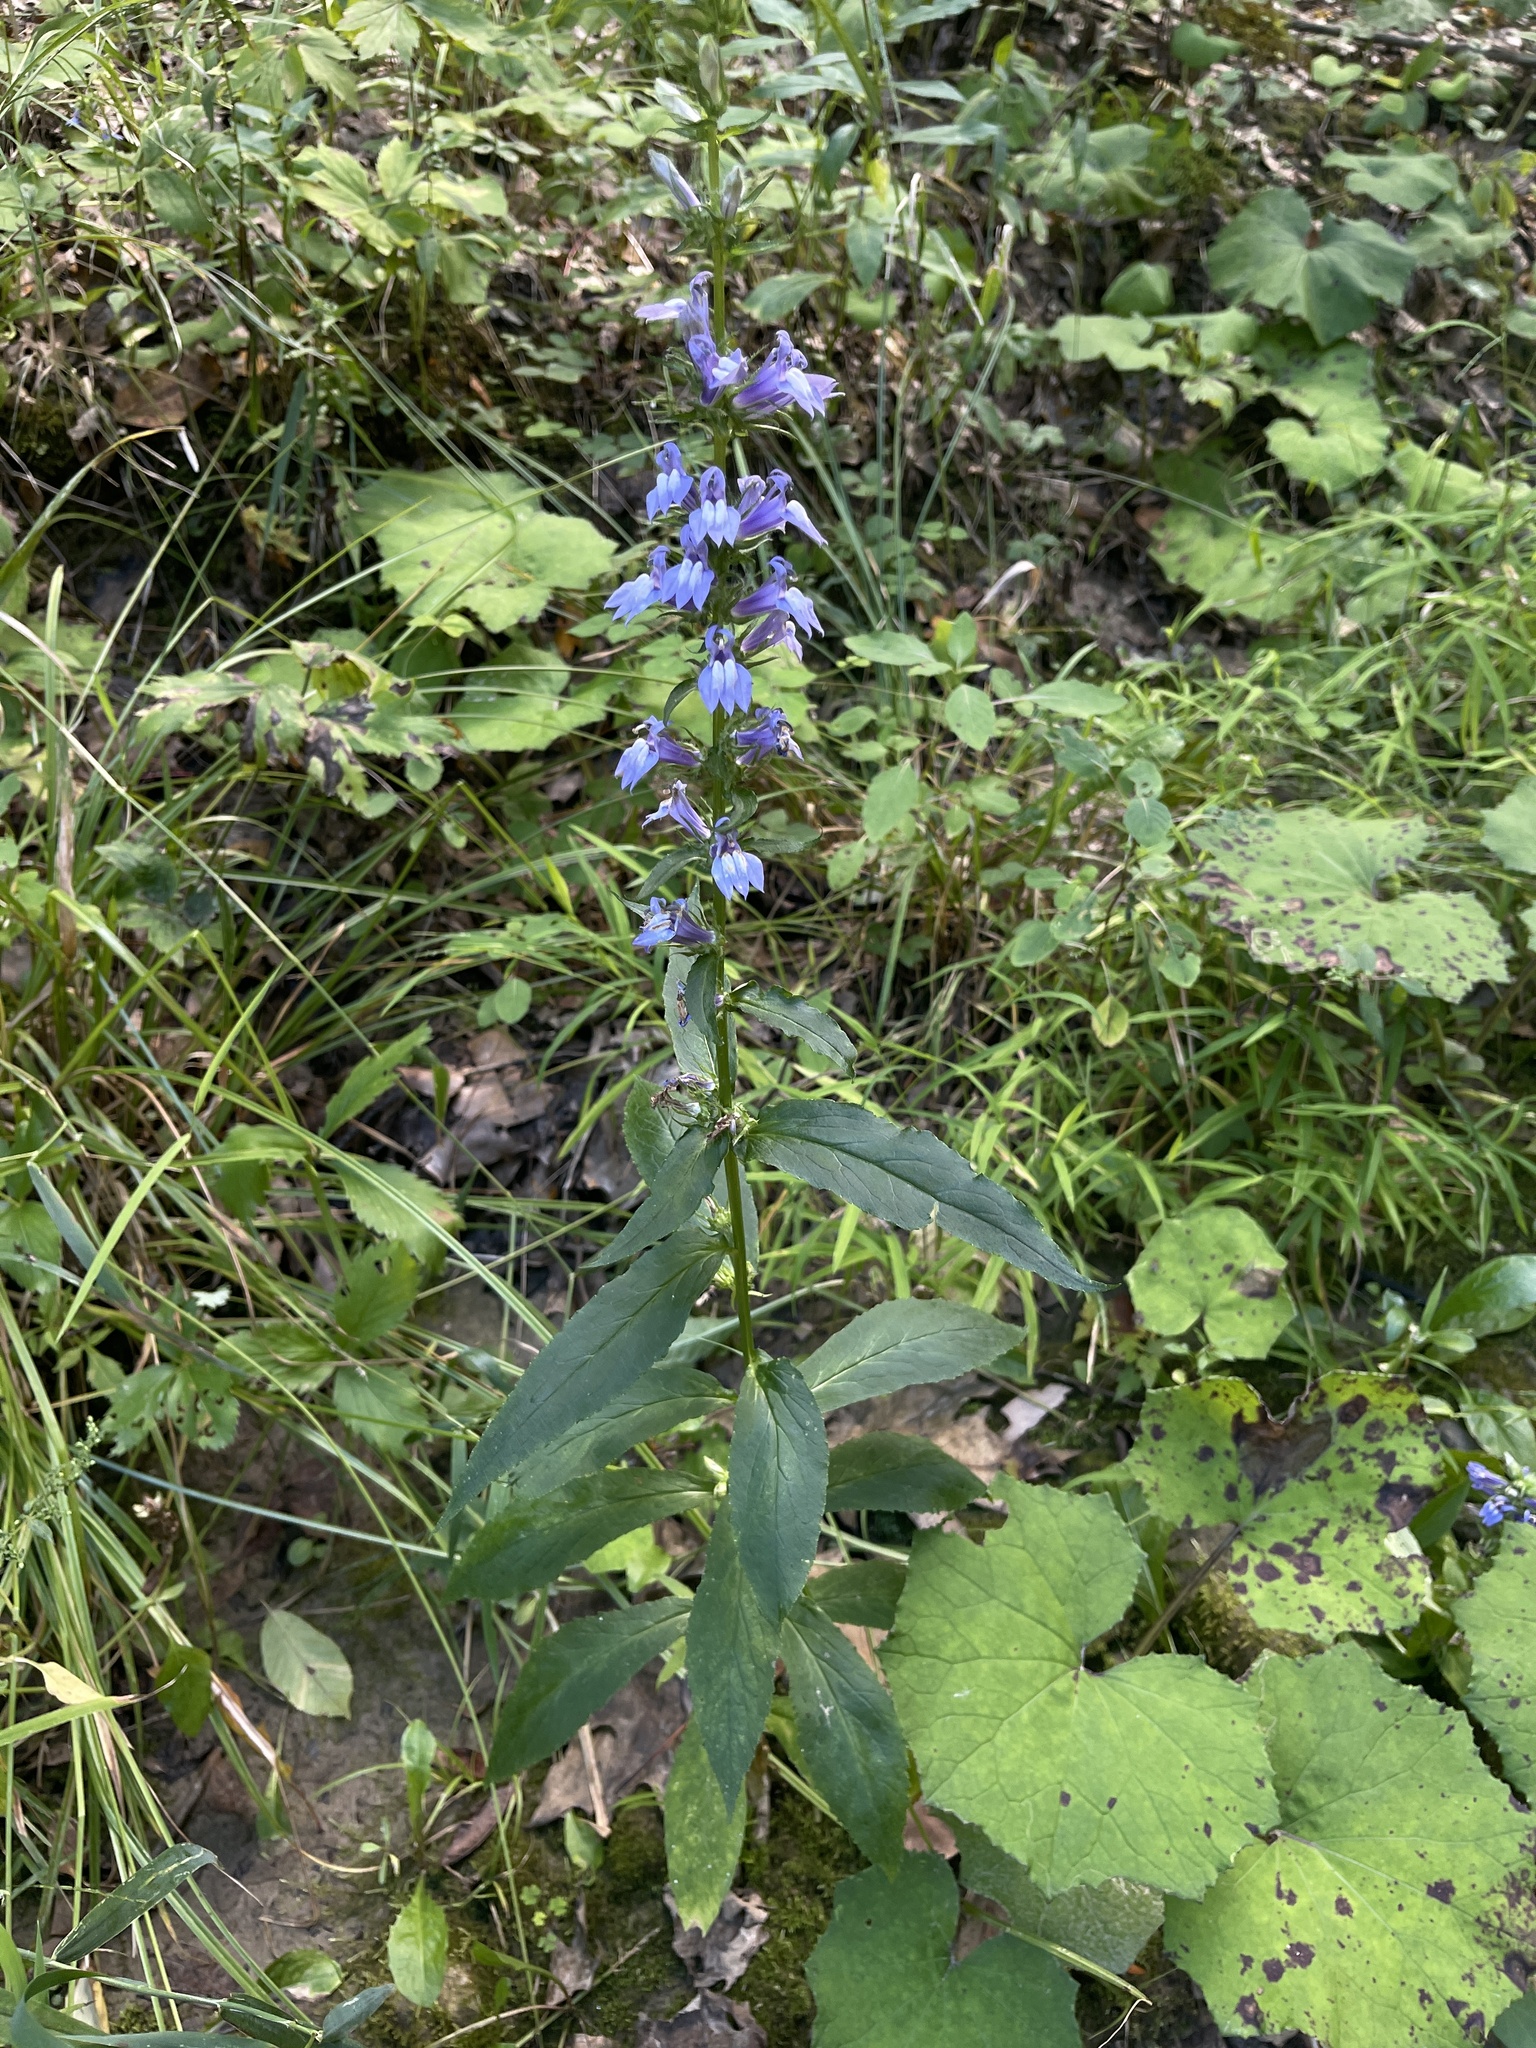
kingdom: Plantae
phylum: Tracheophyta
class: Magnoliopsida
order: Asterales
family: Campanulaceae
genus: Lobelia
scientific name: Lobelia siphilitica
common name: Great lobelia
